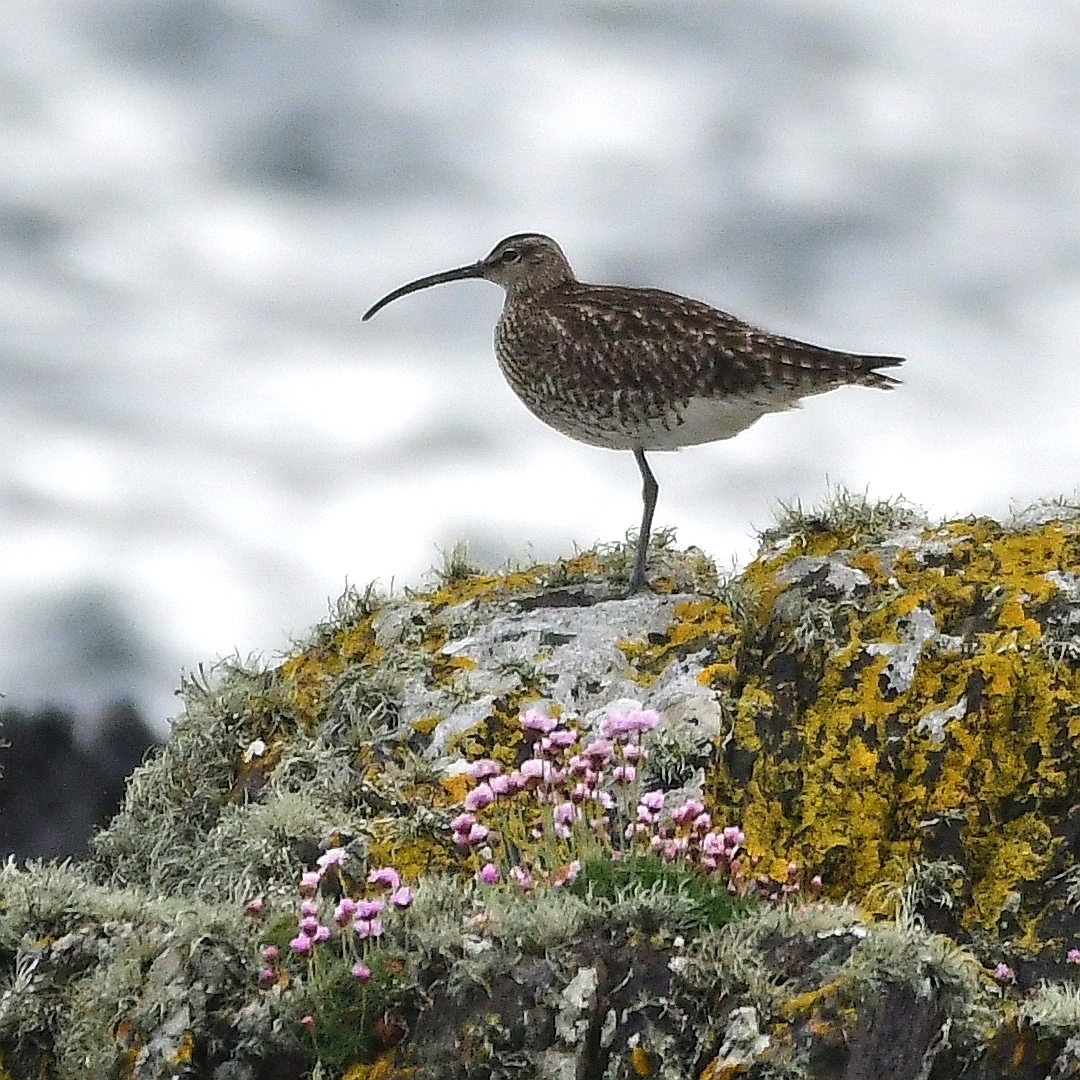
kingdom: Animalia
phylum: Chordata
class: Aves
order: Charadriiformes
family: Scolopacidae
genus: Numenius
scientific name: Numenius phaeopus
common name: Whimbrel
